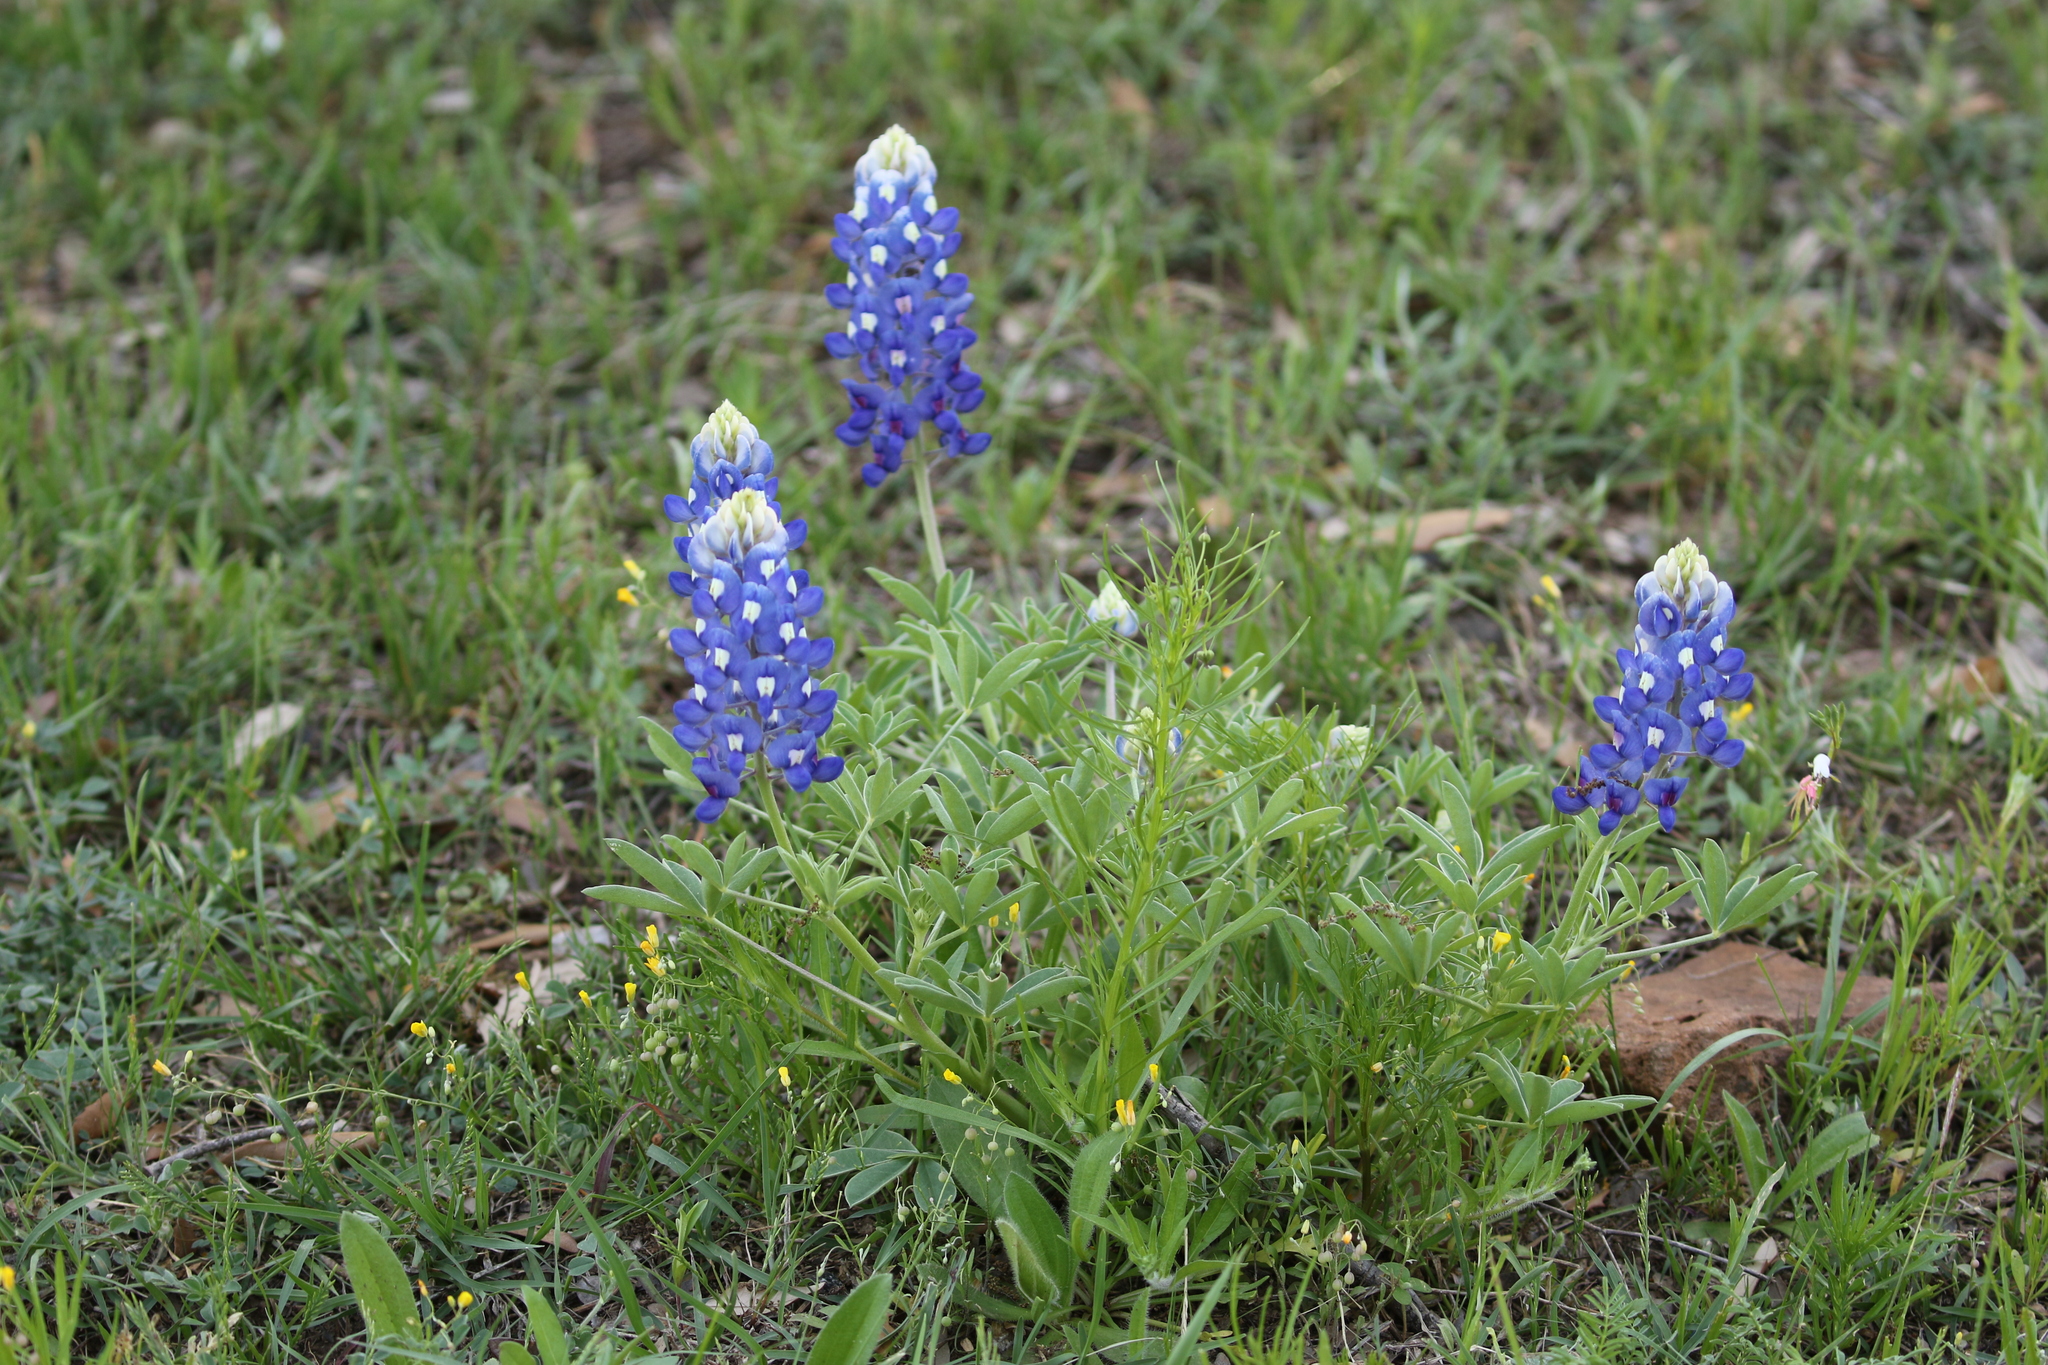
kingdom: Plantae
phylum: Tracheophyta
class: Magnoliopsida
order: Fabales
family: Fabaceae
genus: Lupinus
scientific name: Lupinus texensis
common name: Texas bluebonnet
